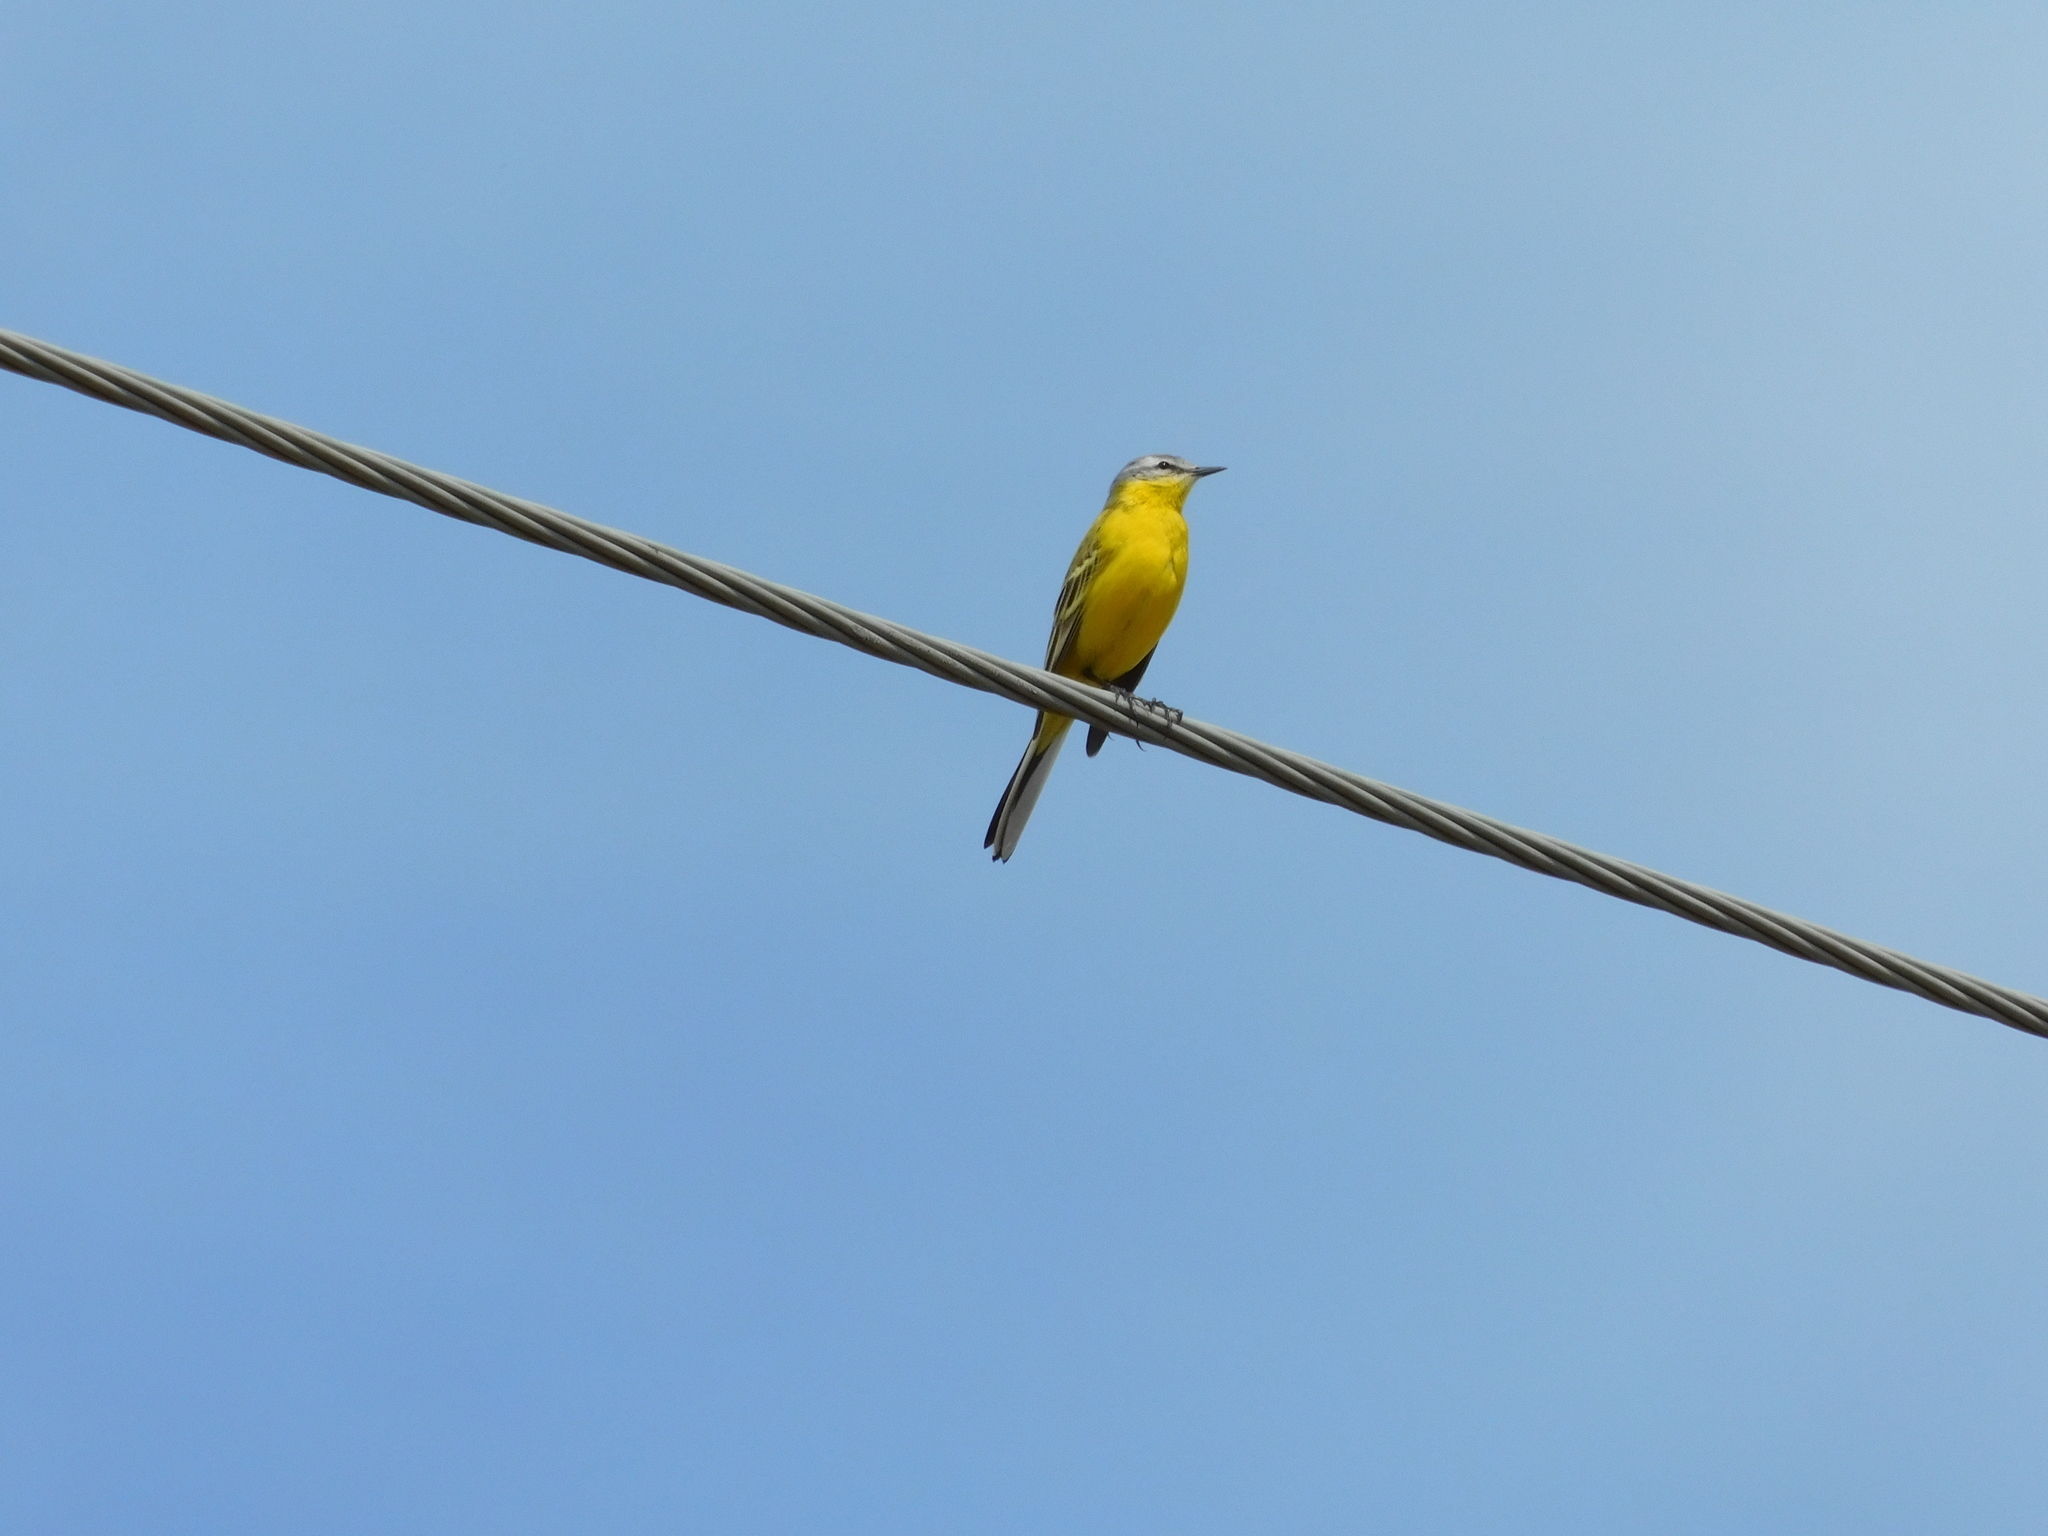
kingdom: Animalia
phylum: Chordata
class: Aves
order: Passeriformes
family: Motacillidae
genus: Motacilla
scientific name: Motacilla flava
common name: Western yellow wagtail
